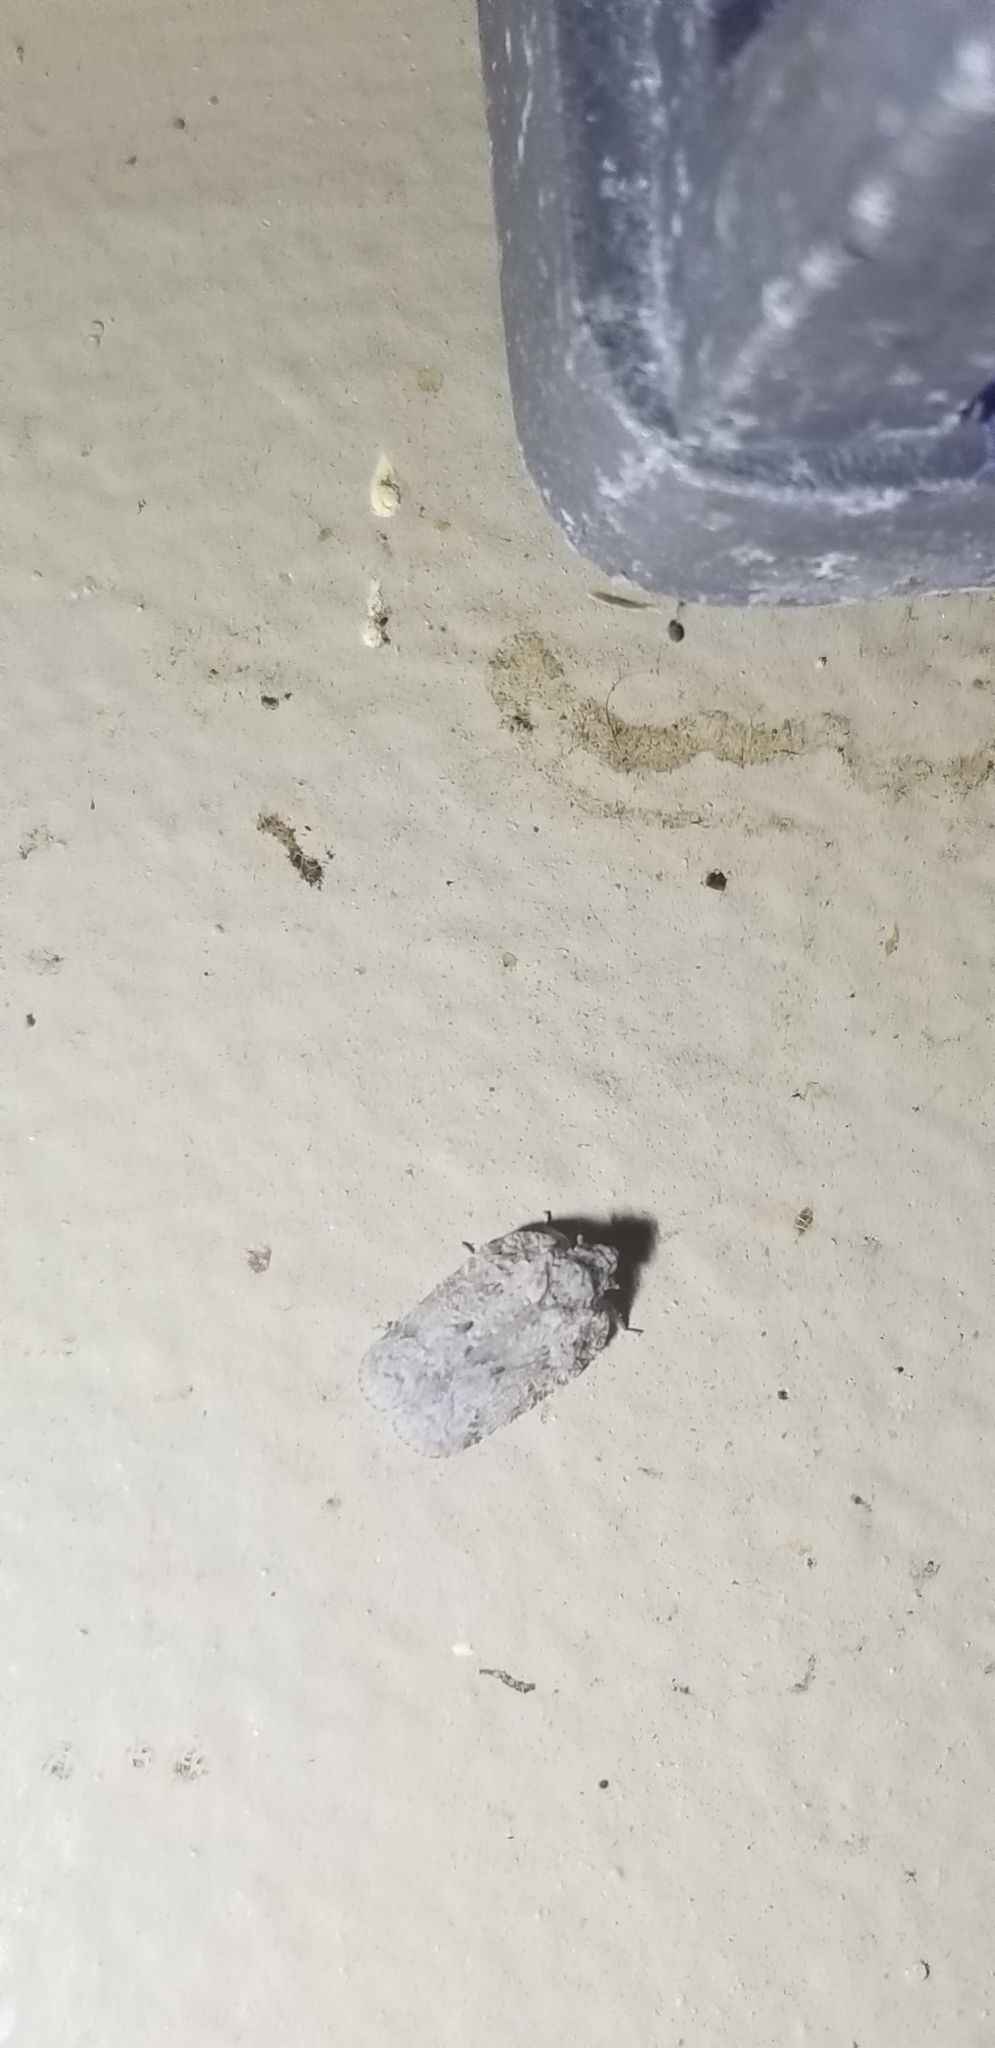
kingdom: Animalia
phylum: Arthropoda
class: Insecta
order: Hemiptera
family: Flatidae
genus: Flatoidinus
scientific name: Flatoidinus punctatus
